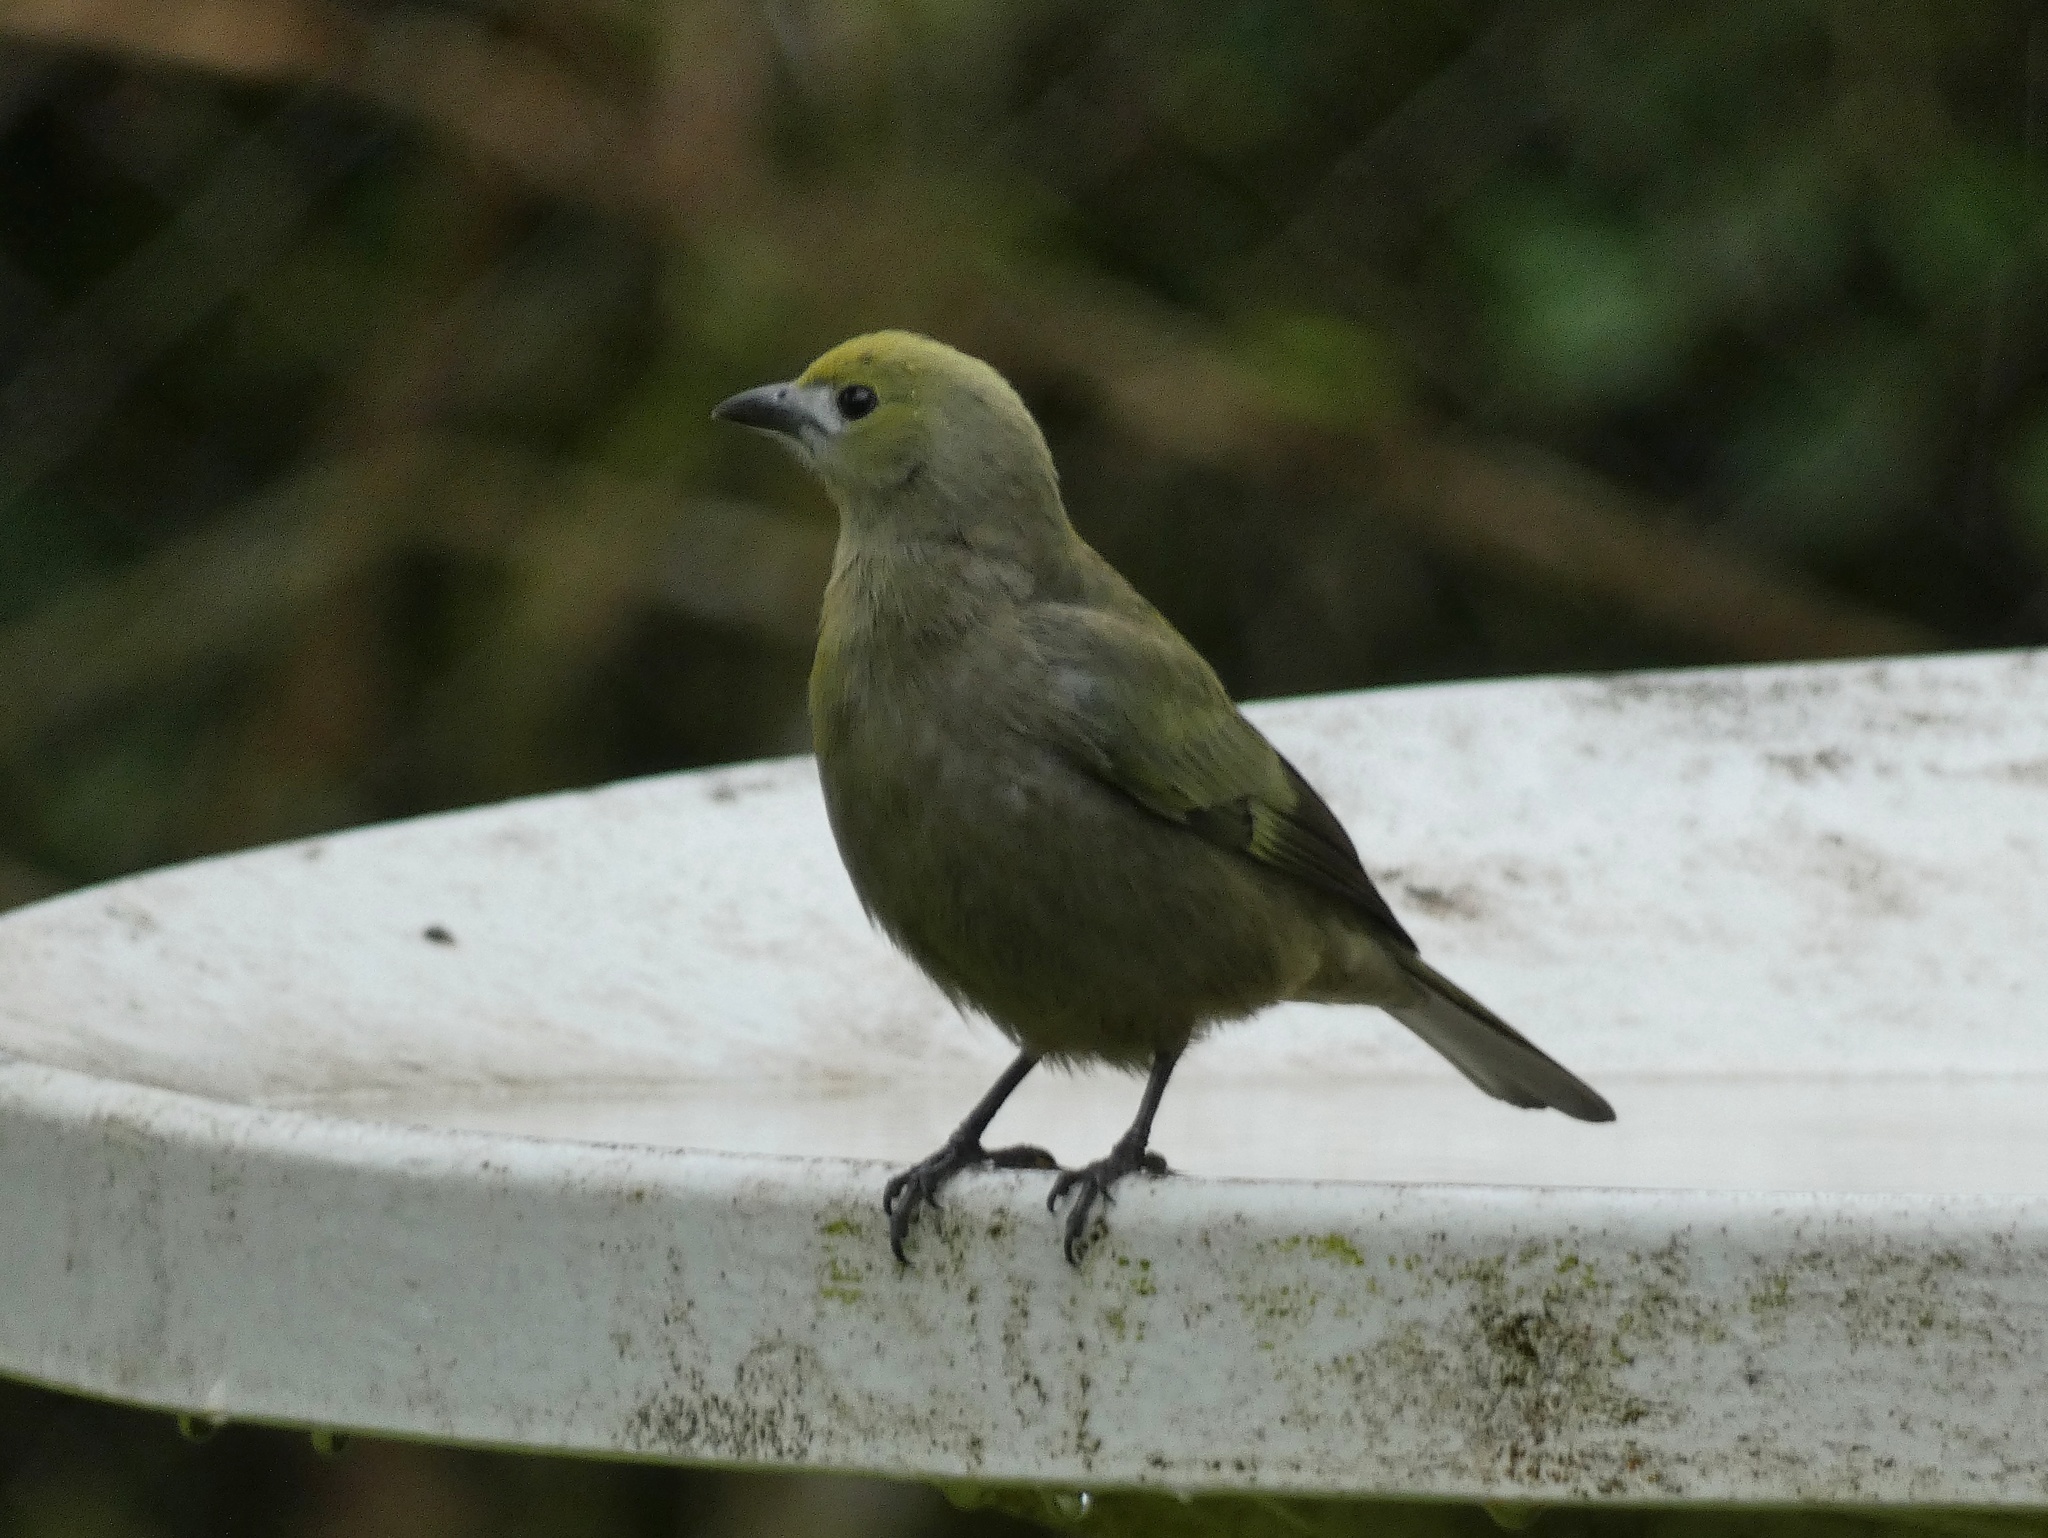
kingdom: Animalia
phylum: Chordata
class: Aves
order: Passeriformes
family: Thraupidae
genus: Thraupis
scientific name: Thraupis palmarum
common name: Palm tanager
